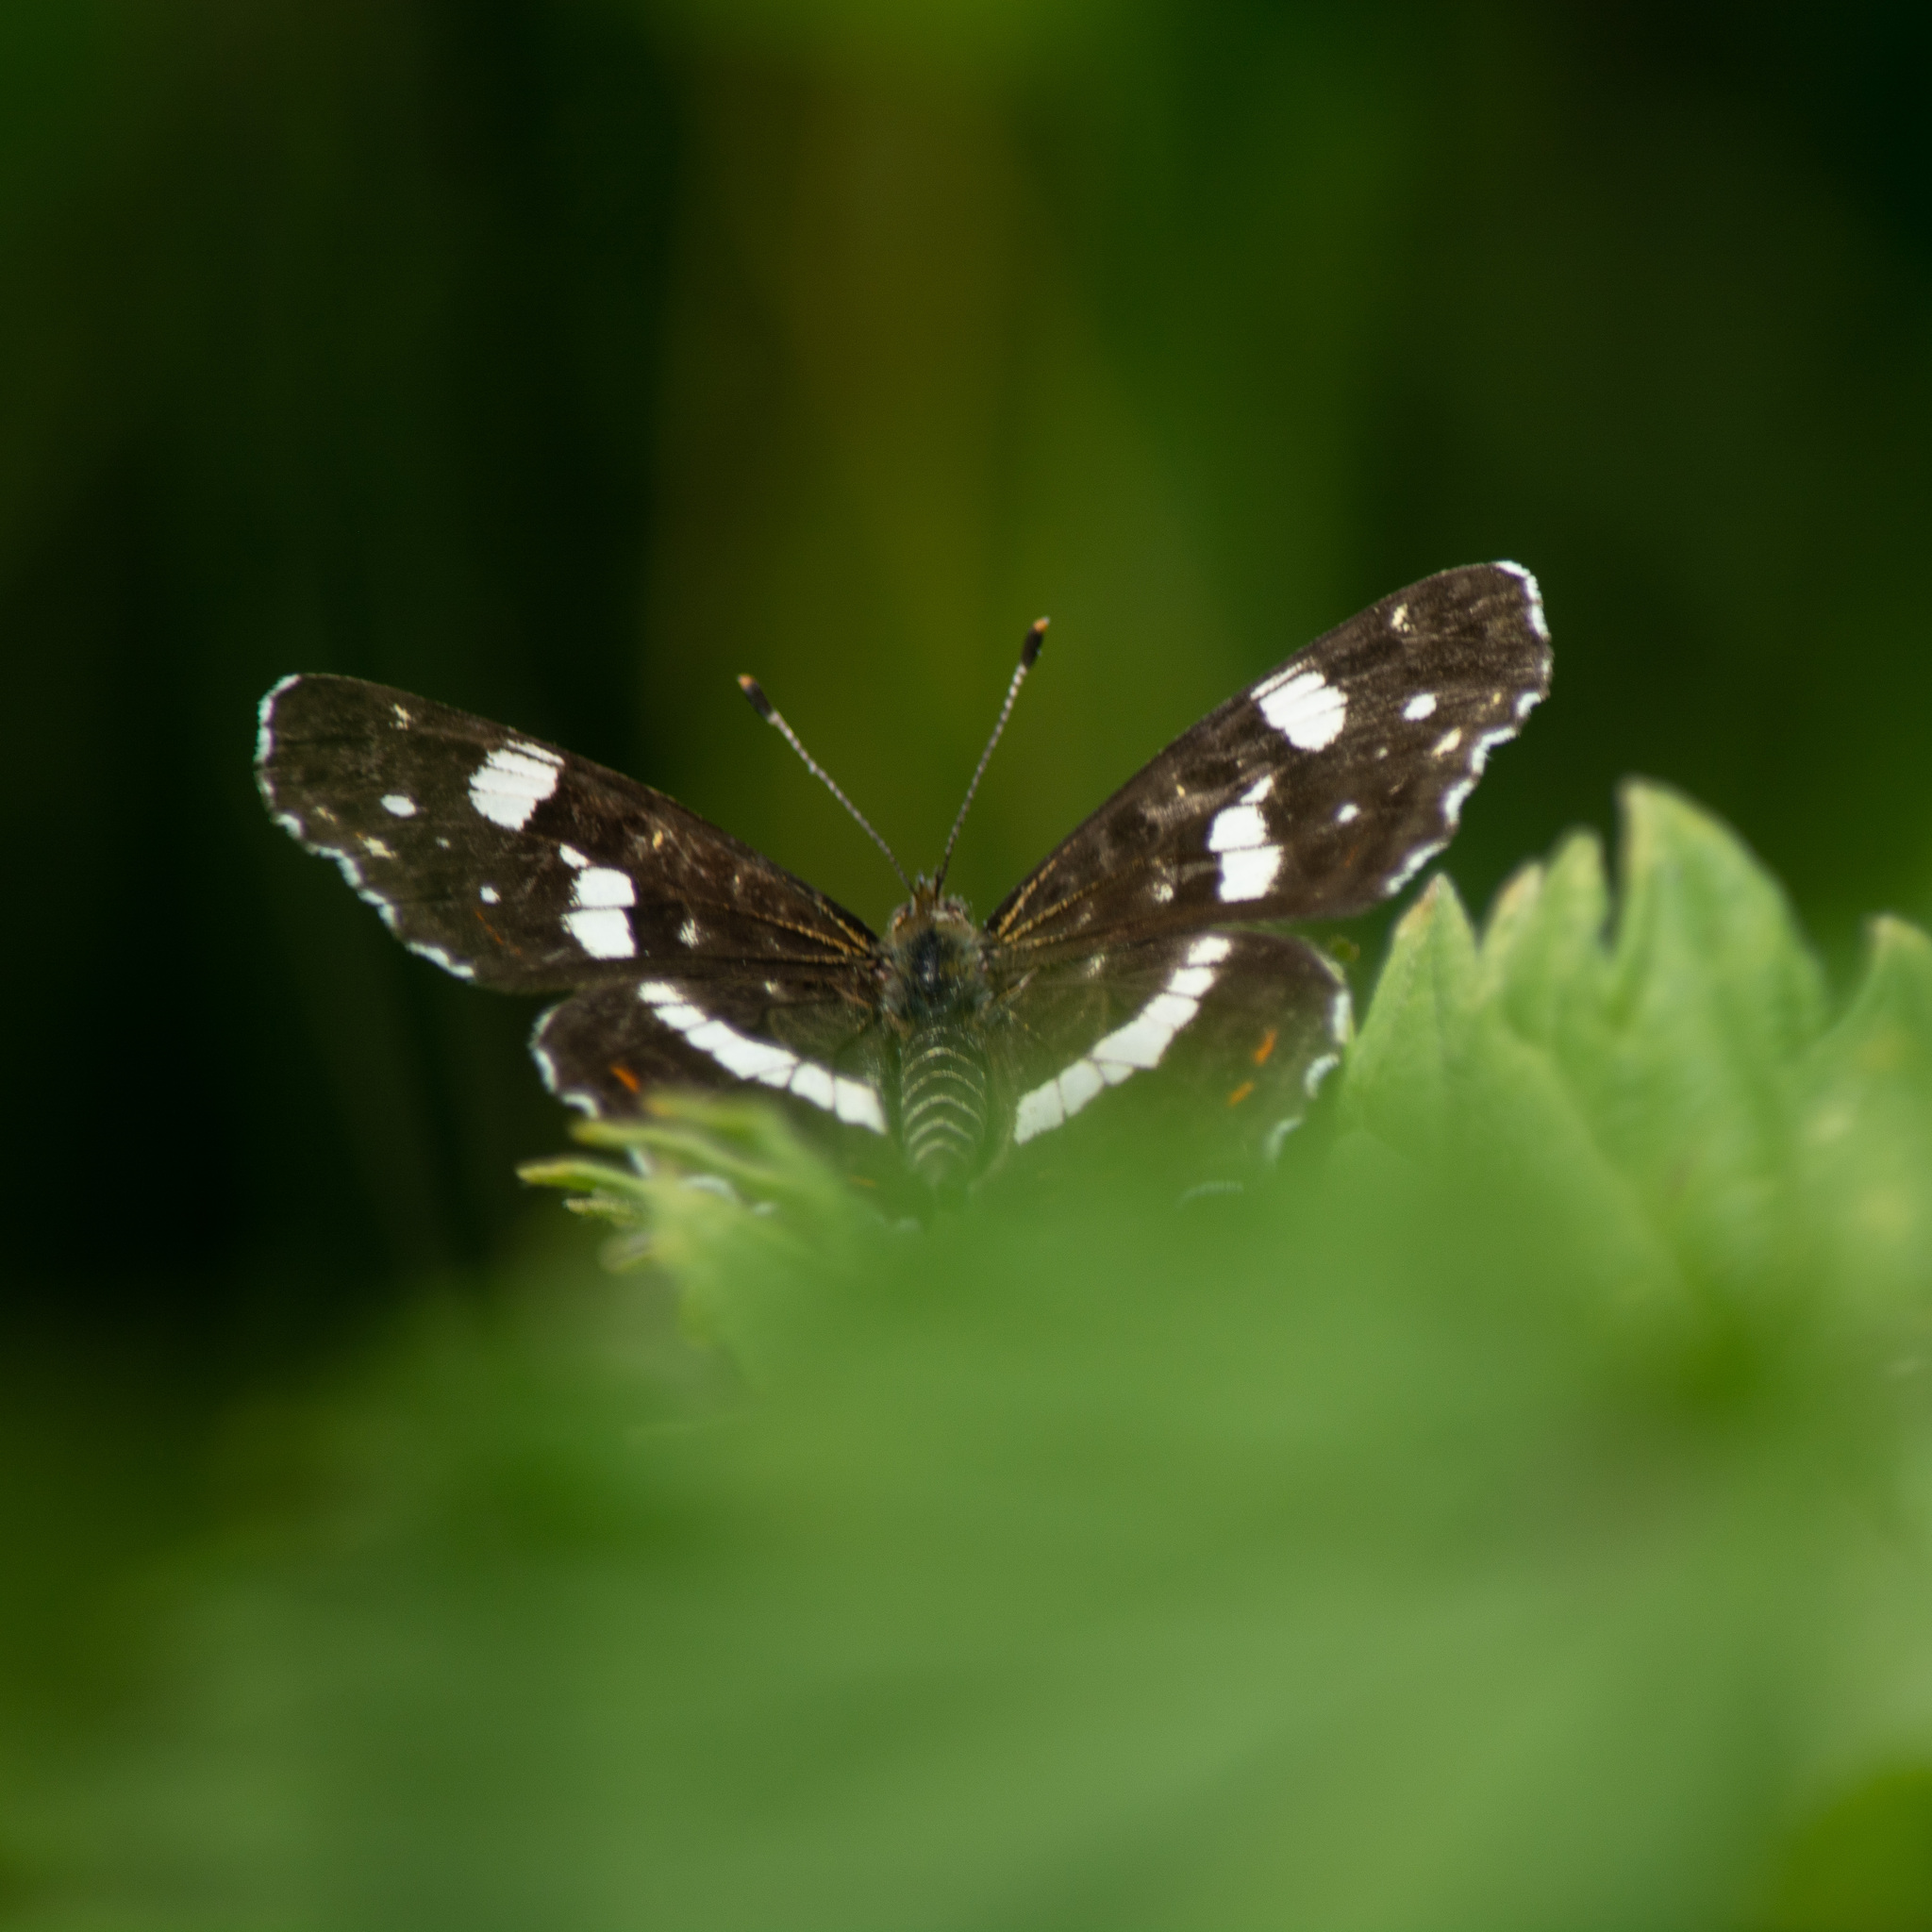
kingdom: Animalia
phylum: Arthropoda
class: Insecta
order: Lepidoptera
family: Nymphalidae
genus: Araschnia
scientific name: Araschnia levana
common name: Map butterfly
